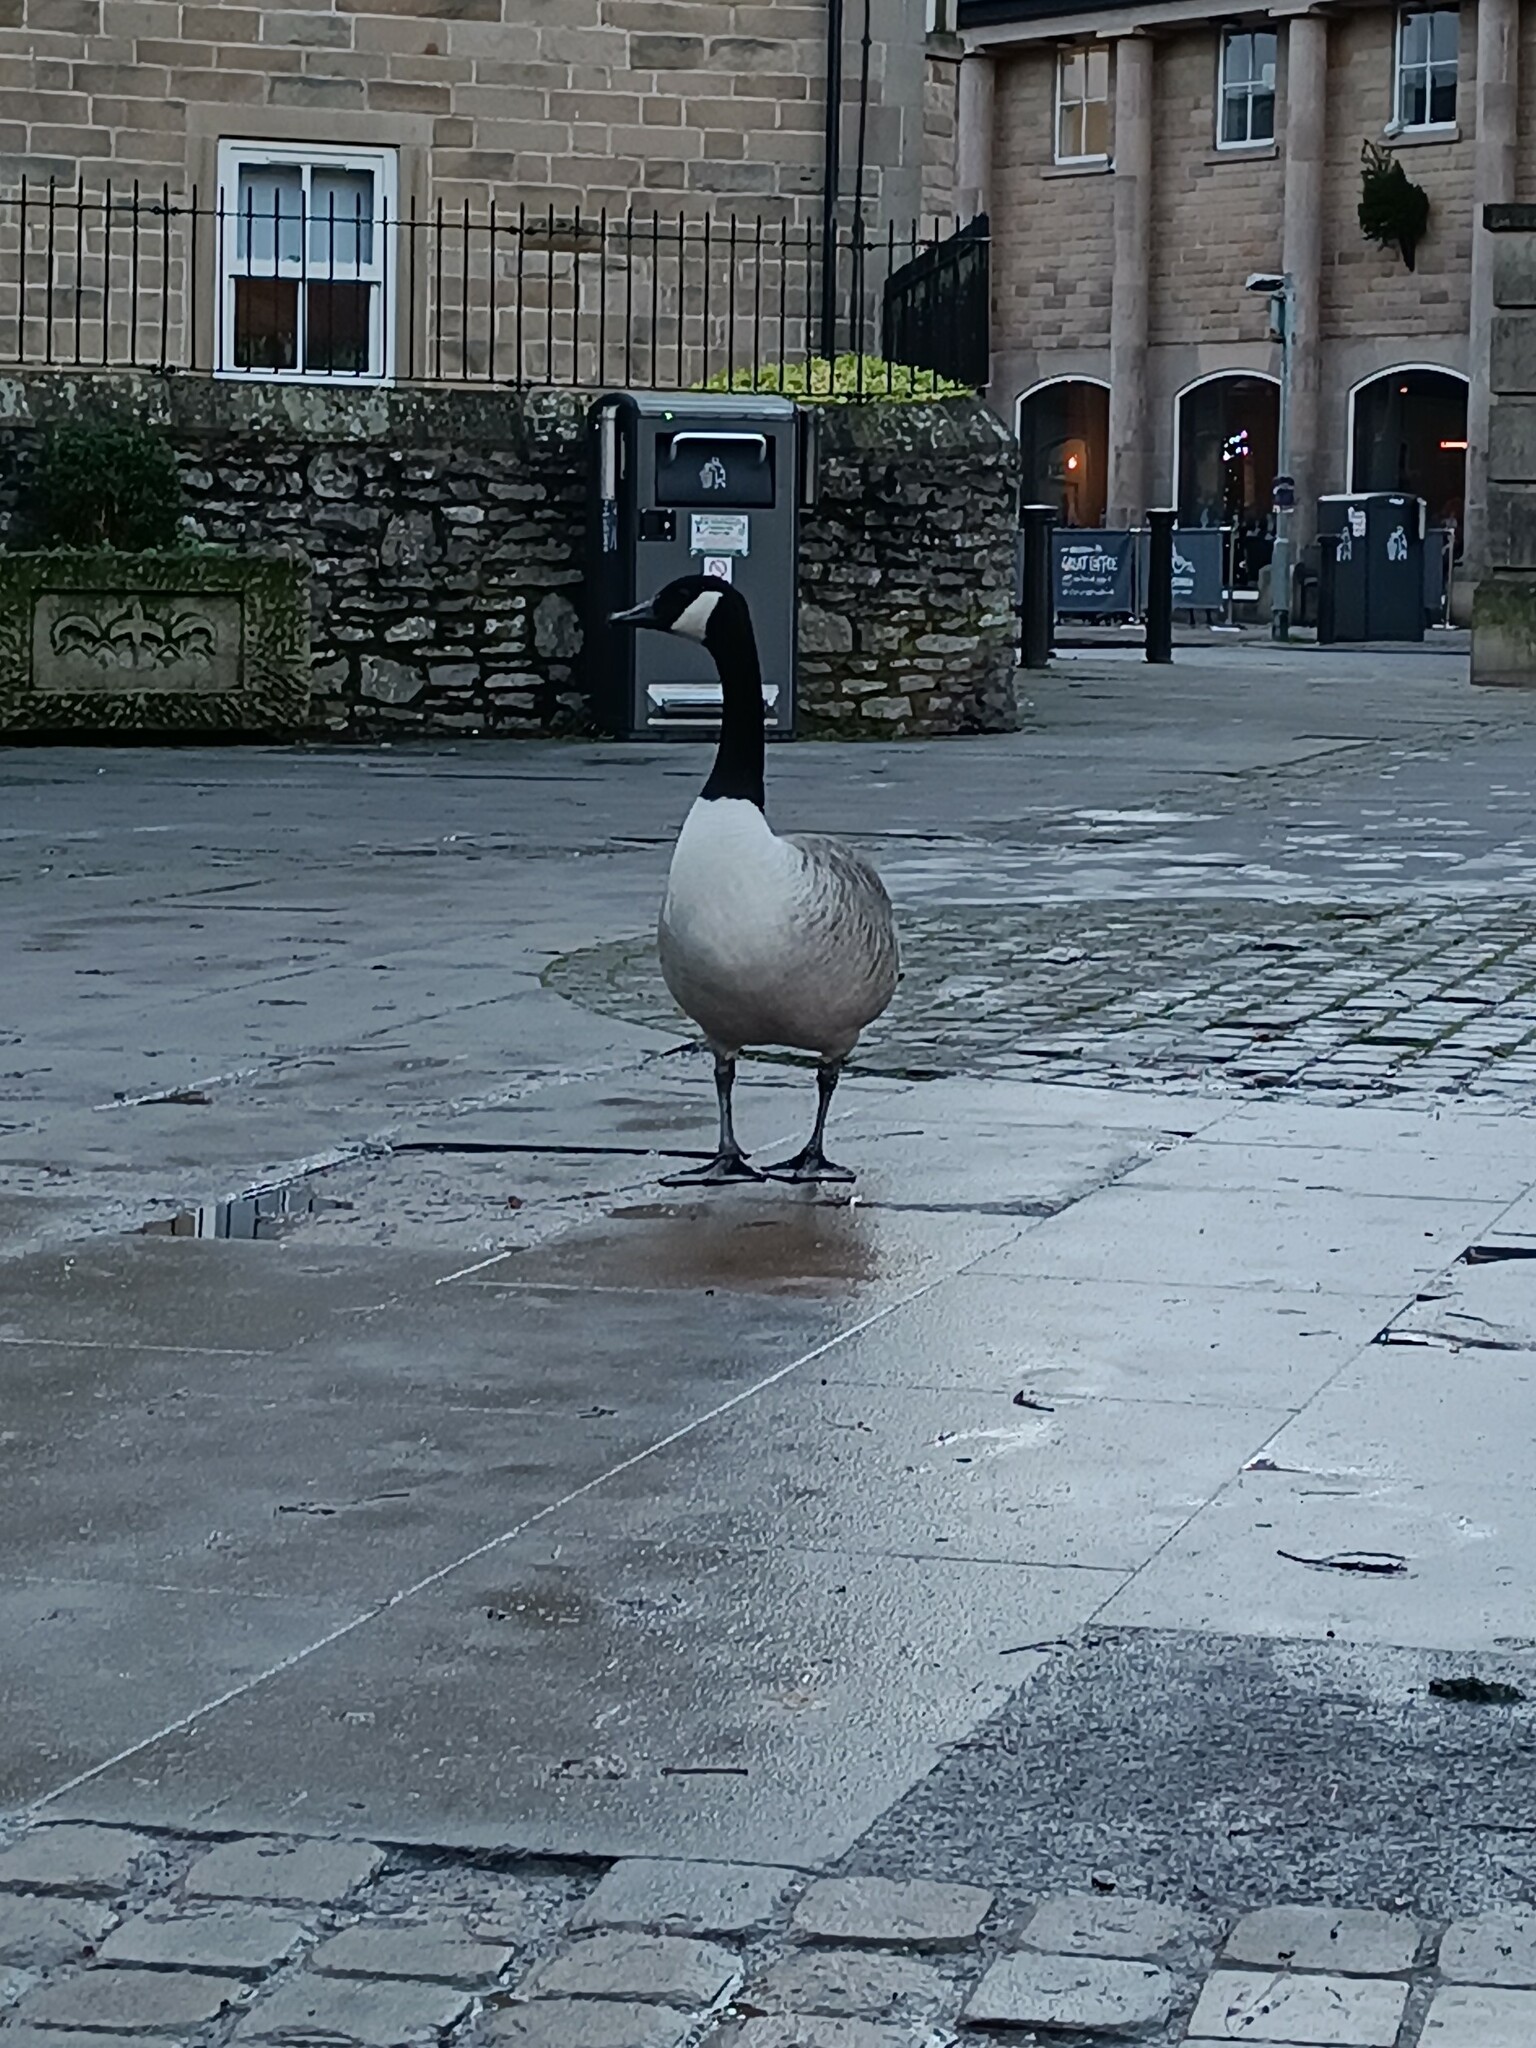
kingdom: Animalia
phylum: Chordata
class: Aves
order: Anseriformes
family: Anatidae
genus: Branta
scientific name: Branta canadensis
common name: Canada goose
